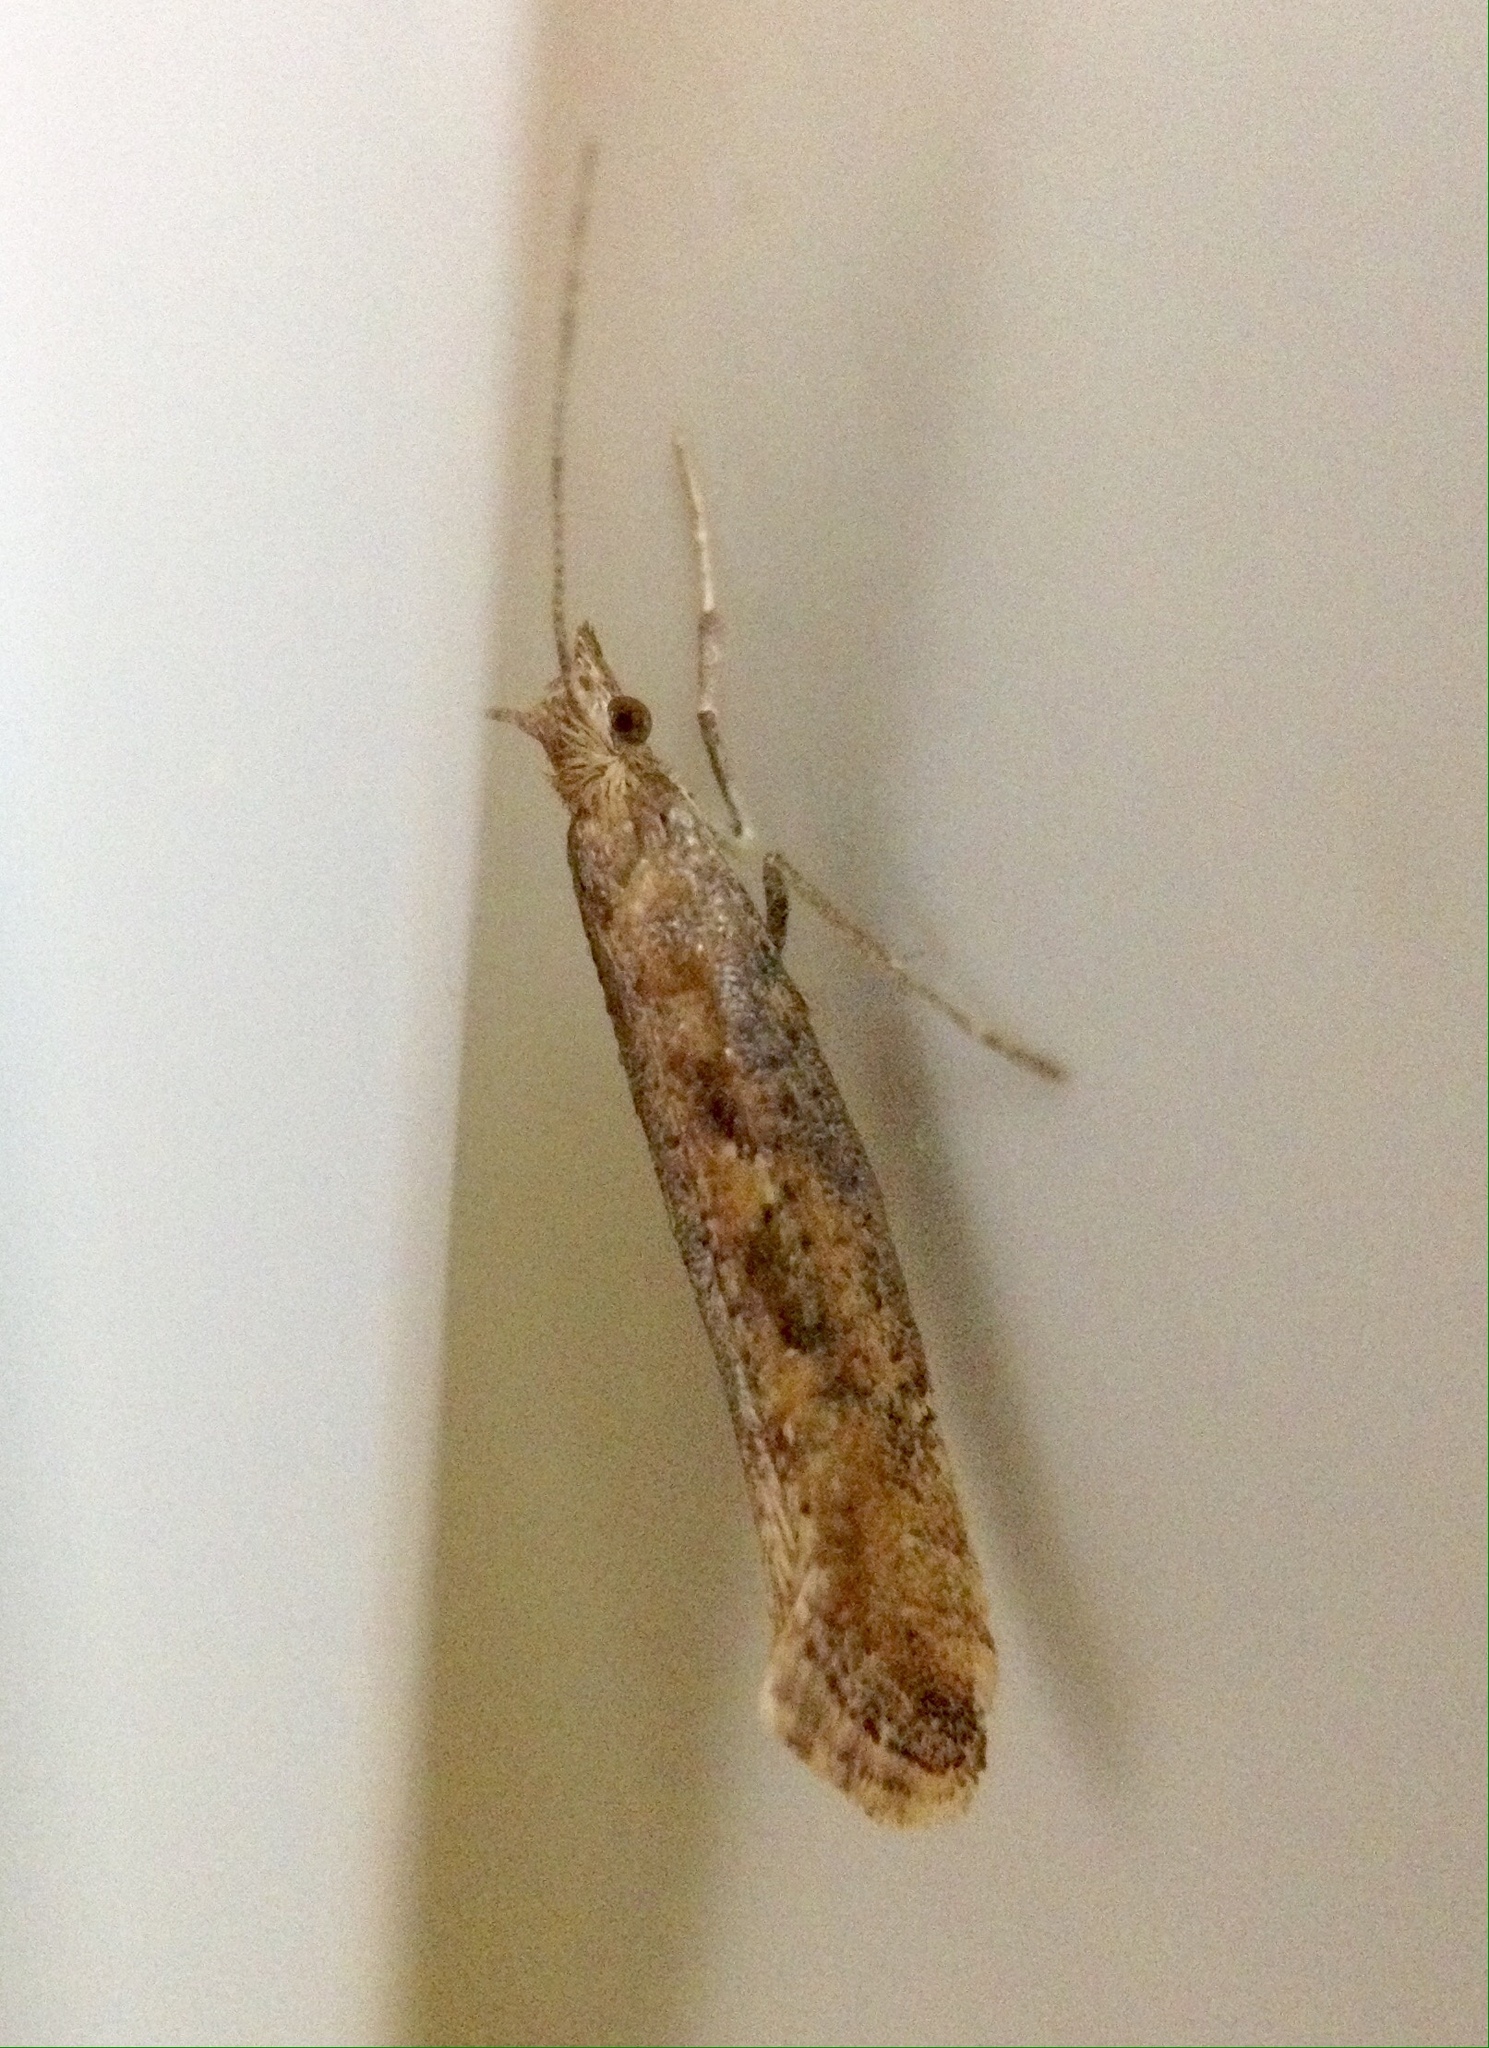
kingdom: Animalia
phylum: Arthropoda
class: Insecta
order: Lepidoptera
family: Plutellidae
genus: Plutella
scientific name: Plutella xylostella
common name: Diamond-back moth
